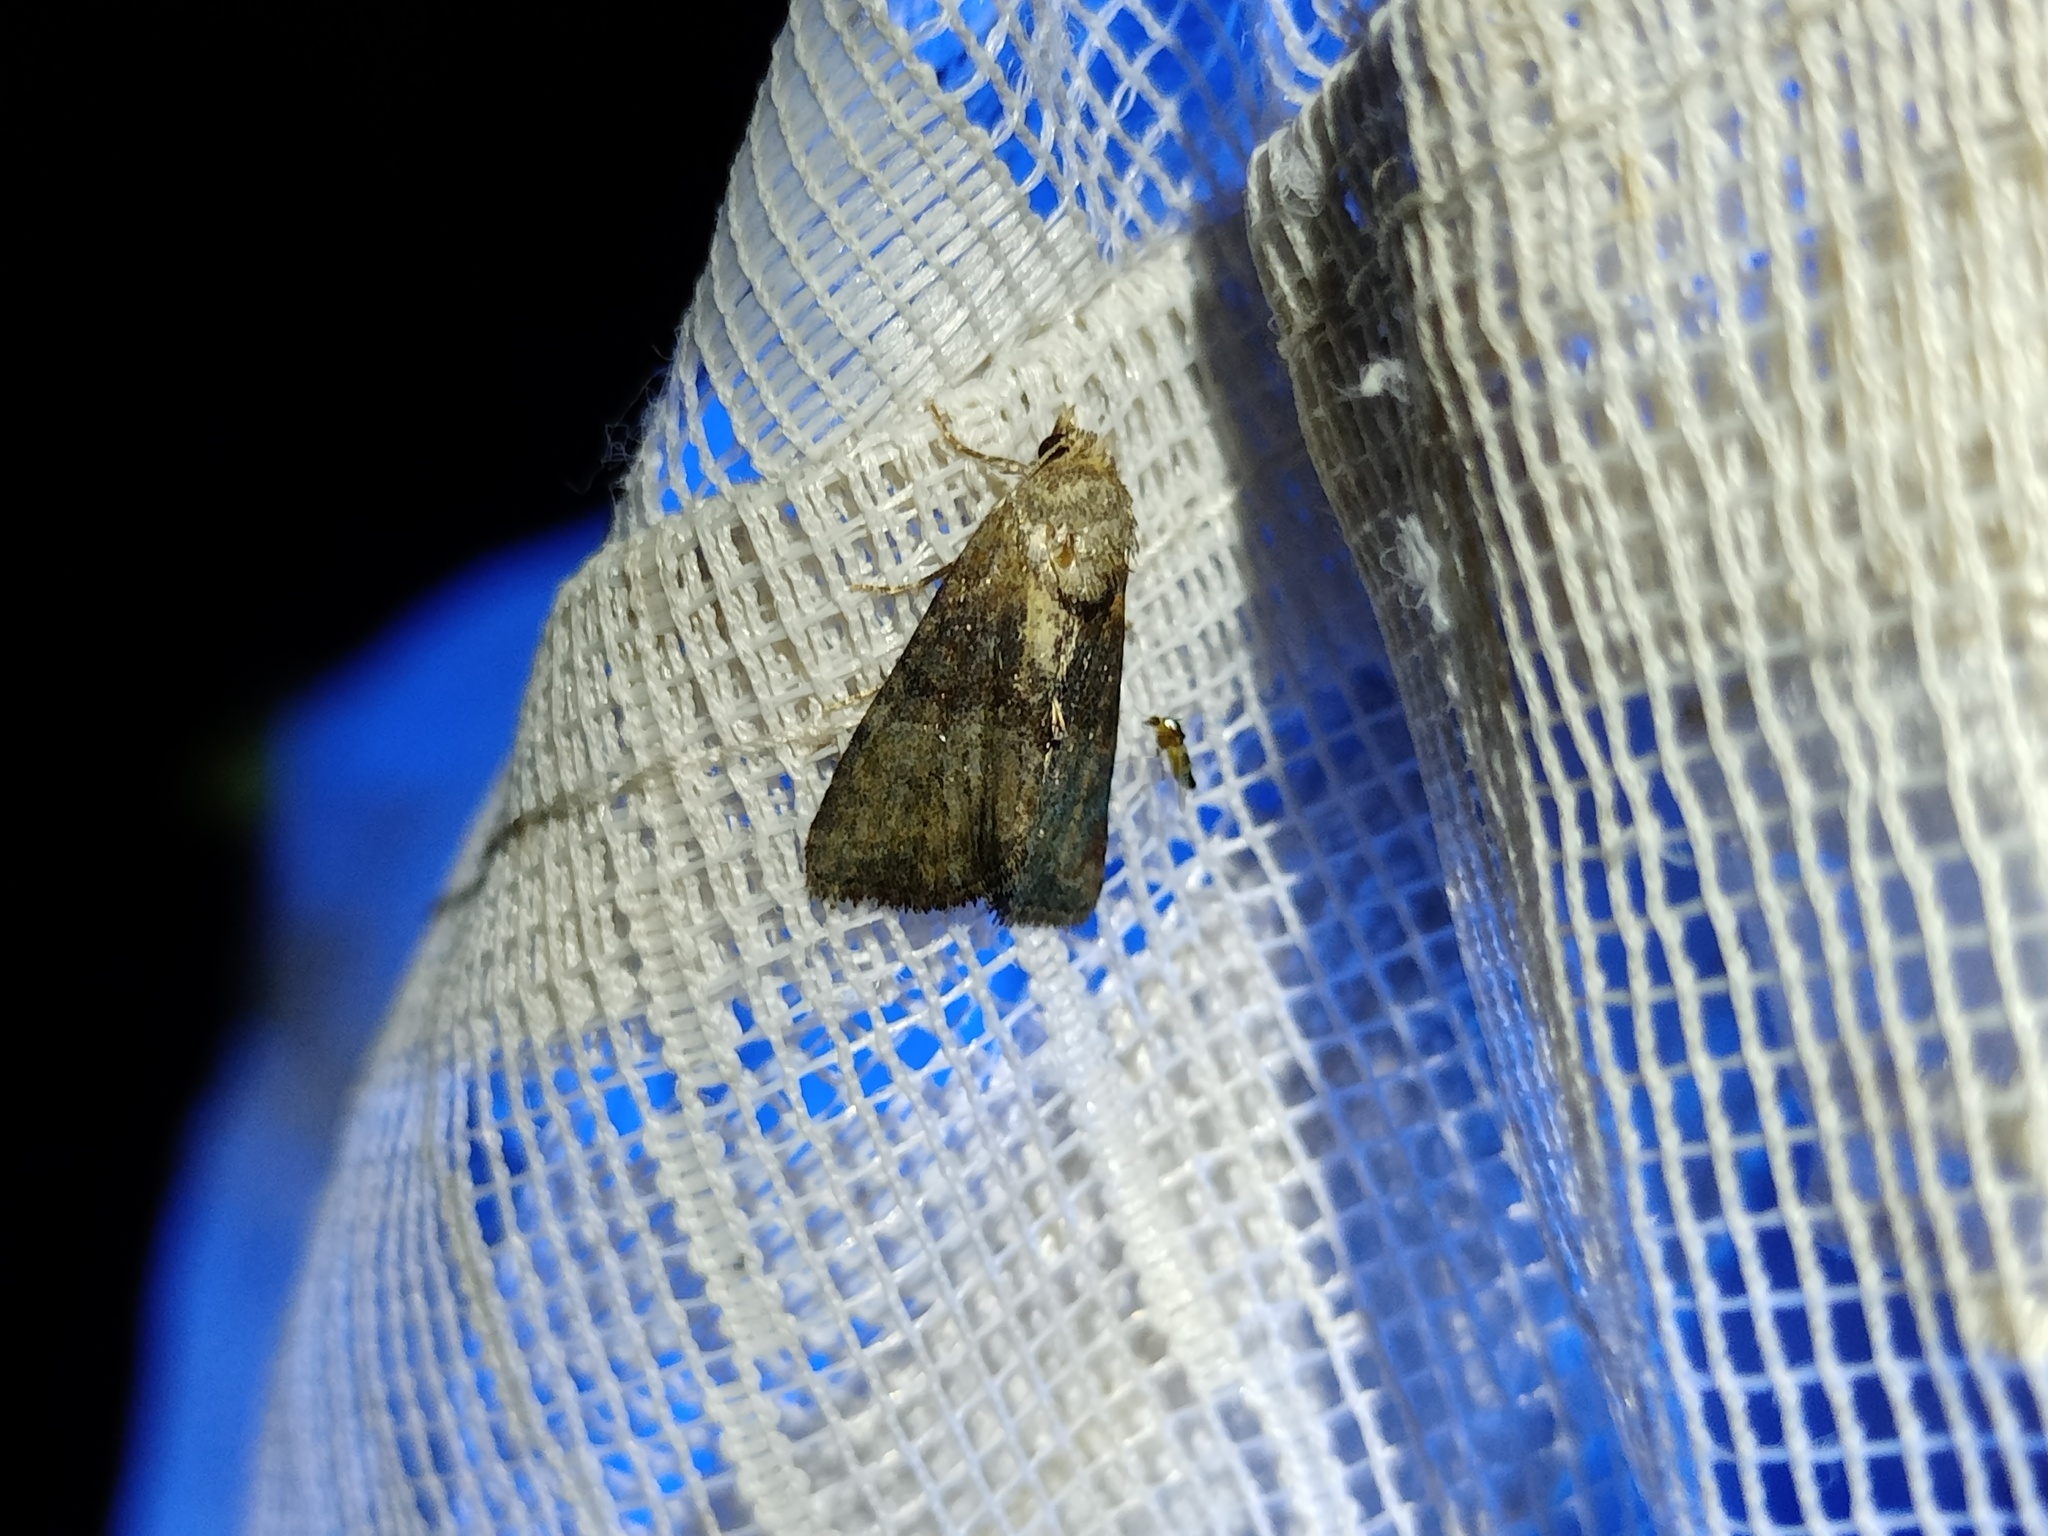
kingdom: Animalia
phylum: Arthropoda
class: Insecta
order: Lepidoptera
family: Noctuidae
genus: Mesoligia
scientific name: Mesoligia furuncula
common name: Cloaked minor
